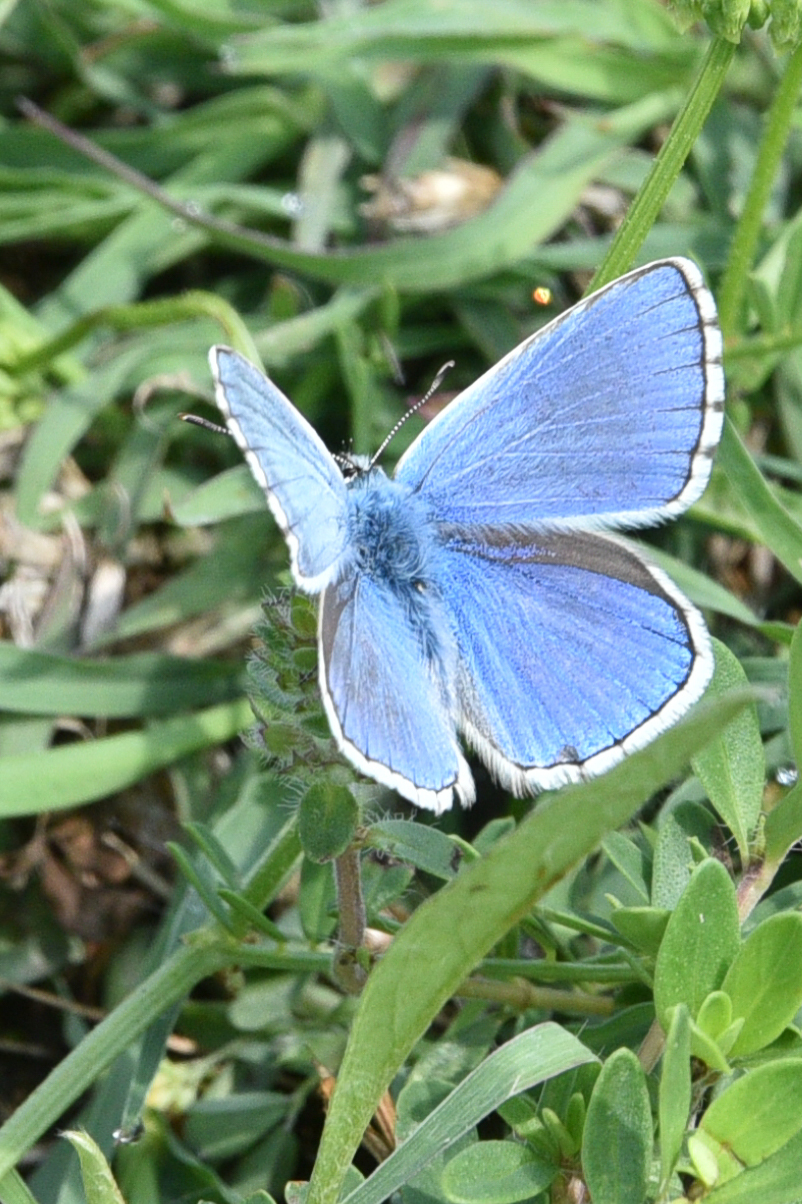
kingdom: Animalia
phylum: Arthropoda
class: Insecta
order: Lepidoptera
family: Lycaenidae
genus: Lysandra
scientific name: Lysandra bellargus
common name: Adonis blue
